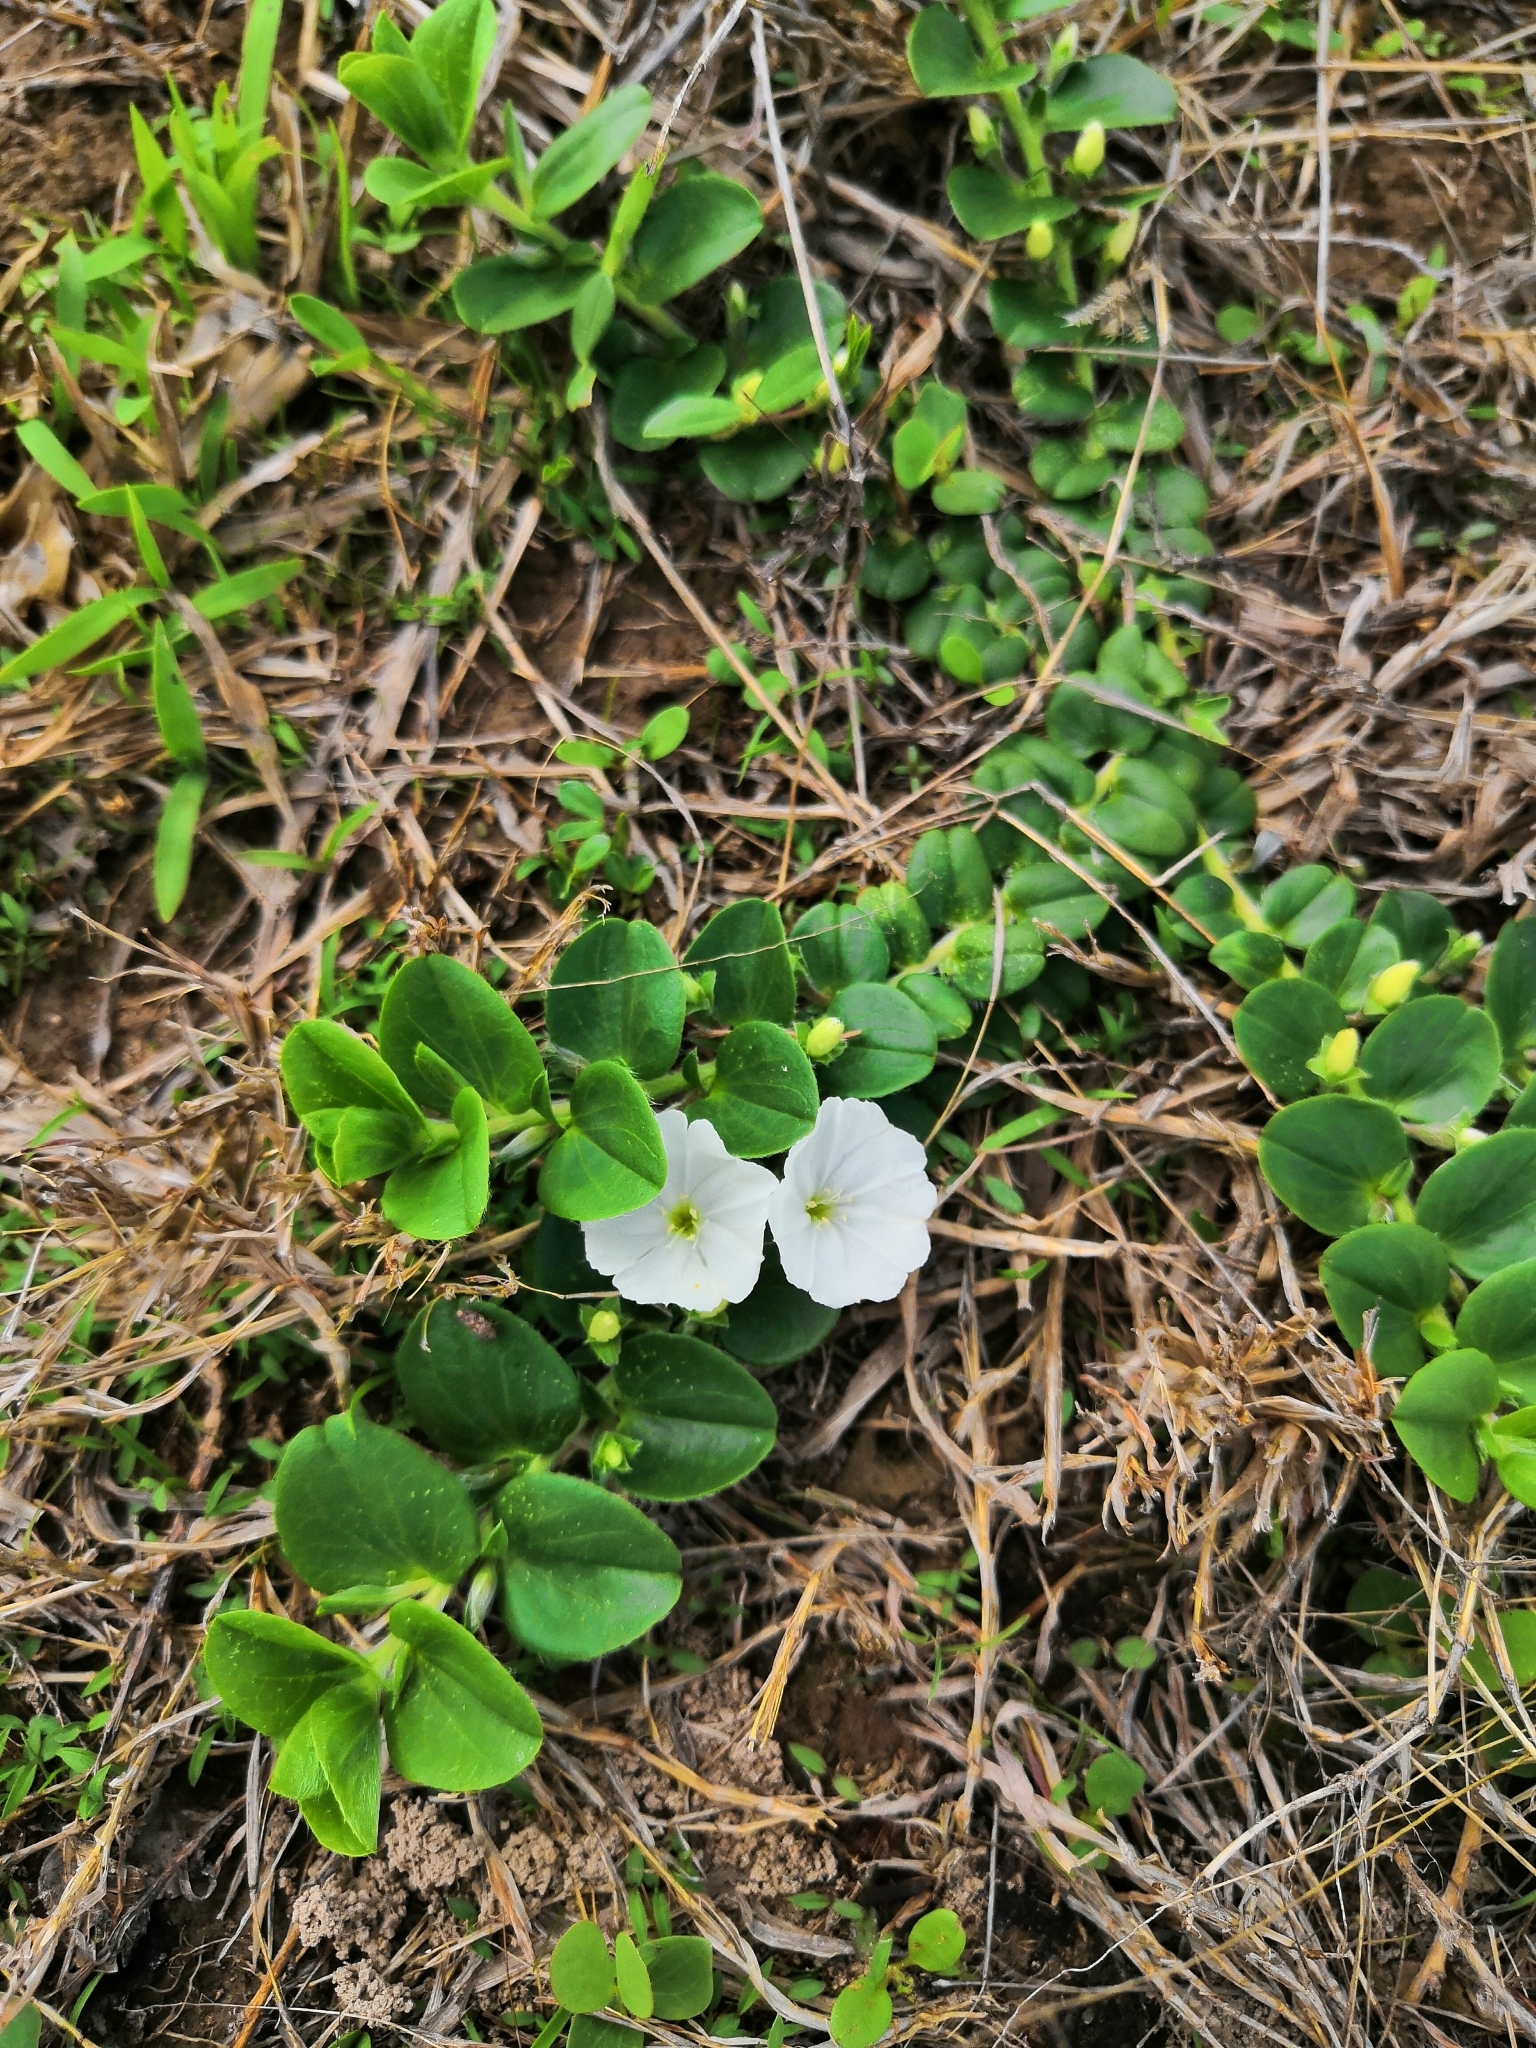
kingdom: Plantae
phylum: Tracheophyta
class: Magnoliopsida
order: Solanales
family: Convolvulaceae
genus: Evolvulus
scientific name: Evolvulus prostratus
